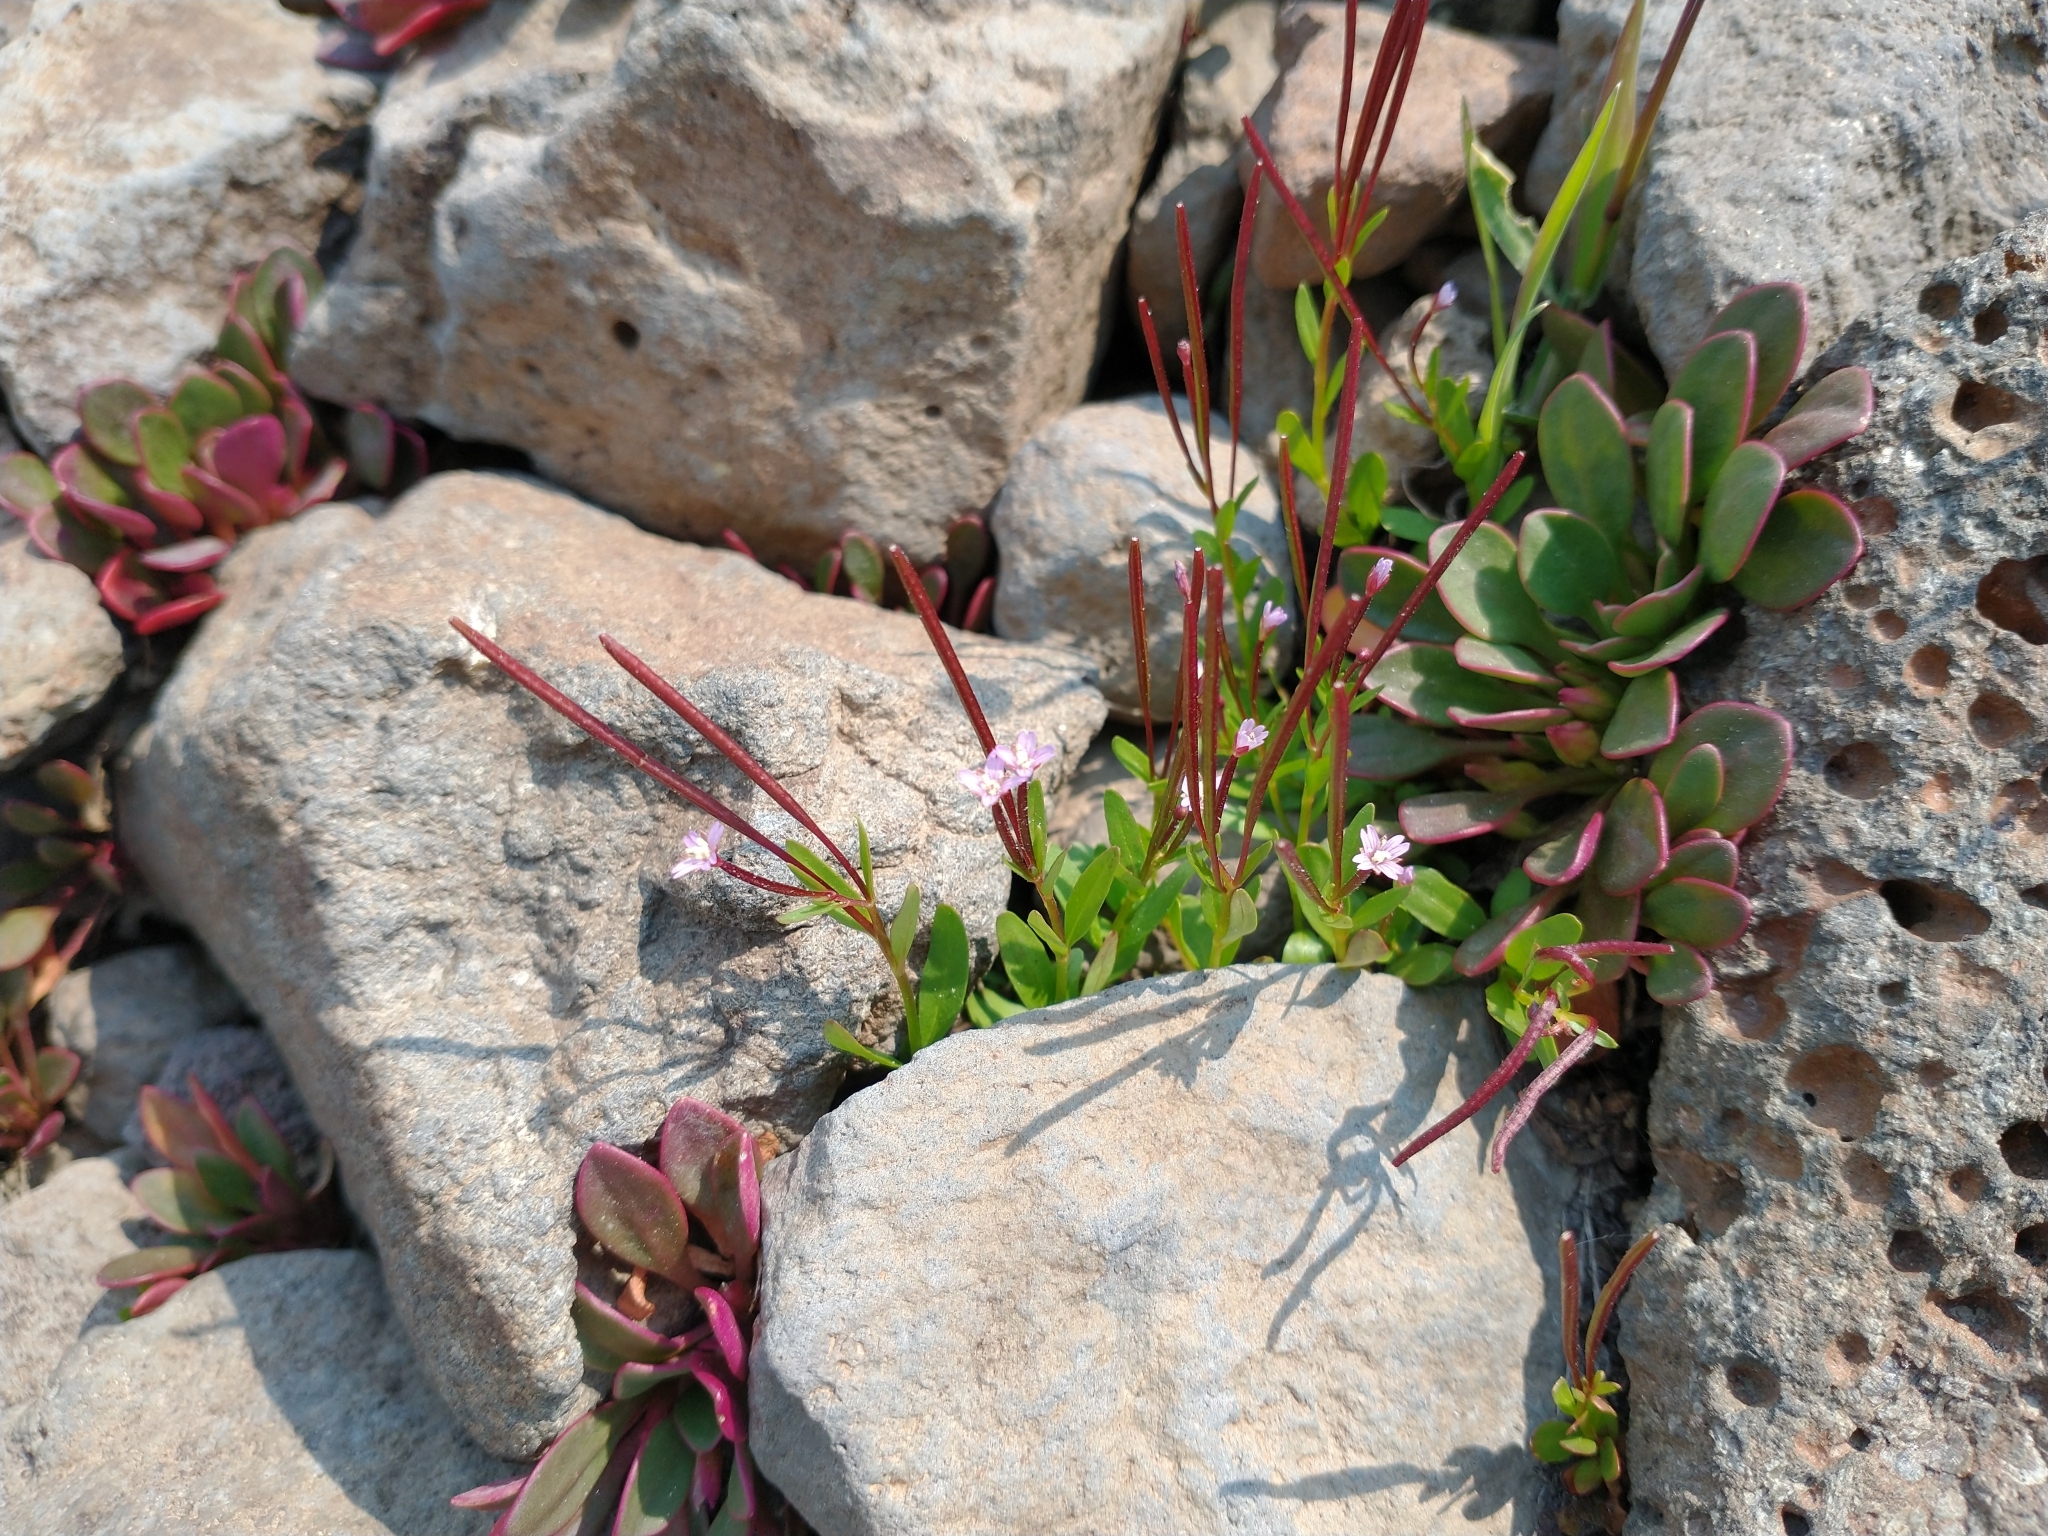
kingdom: Plantae
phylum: Tracheophyta
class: Magnoliopsida
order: Myrtales
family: Onagraceae
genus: Epilobium
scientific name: Epilobium anagallidifolium
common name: Alpine willowherb
